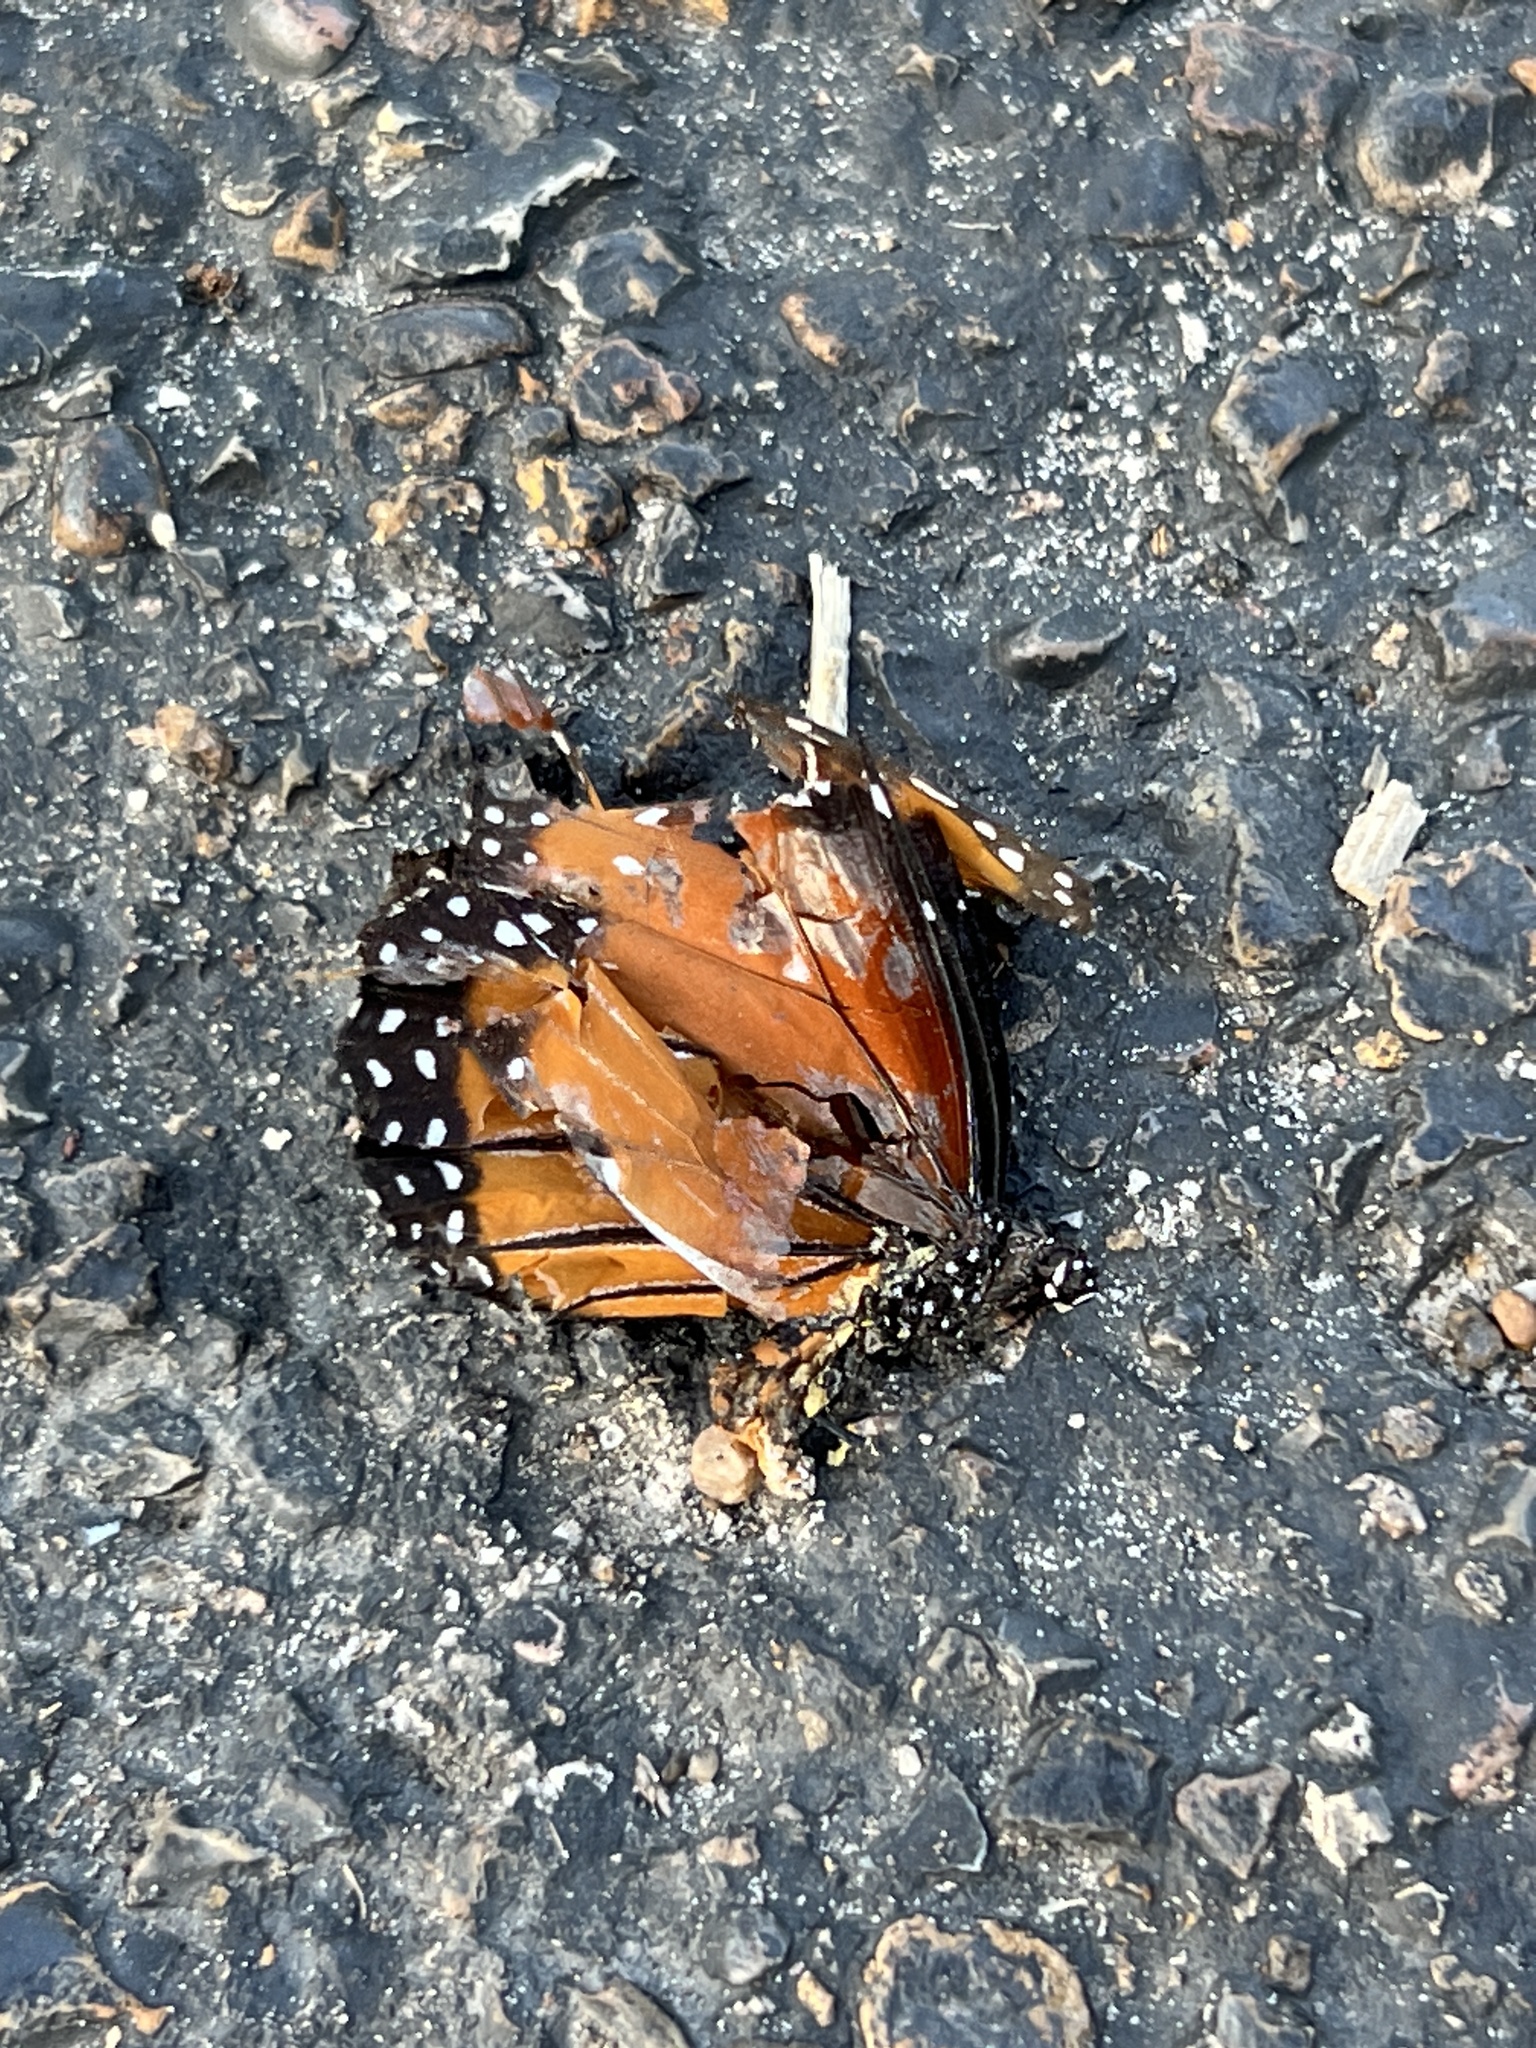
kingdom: Animalia
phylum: Arthropoda
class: Insecta
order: Lepidoptera
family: Nymphalidae
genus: Danaus
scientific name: Danaus gilippus
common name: Queen
